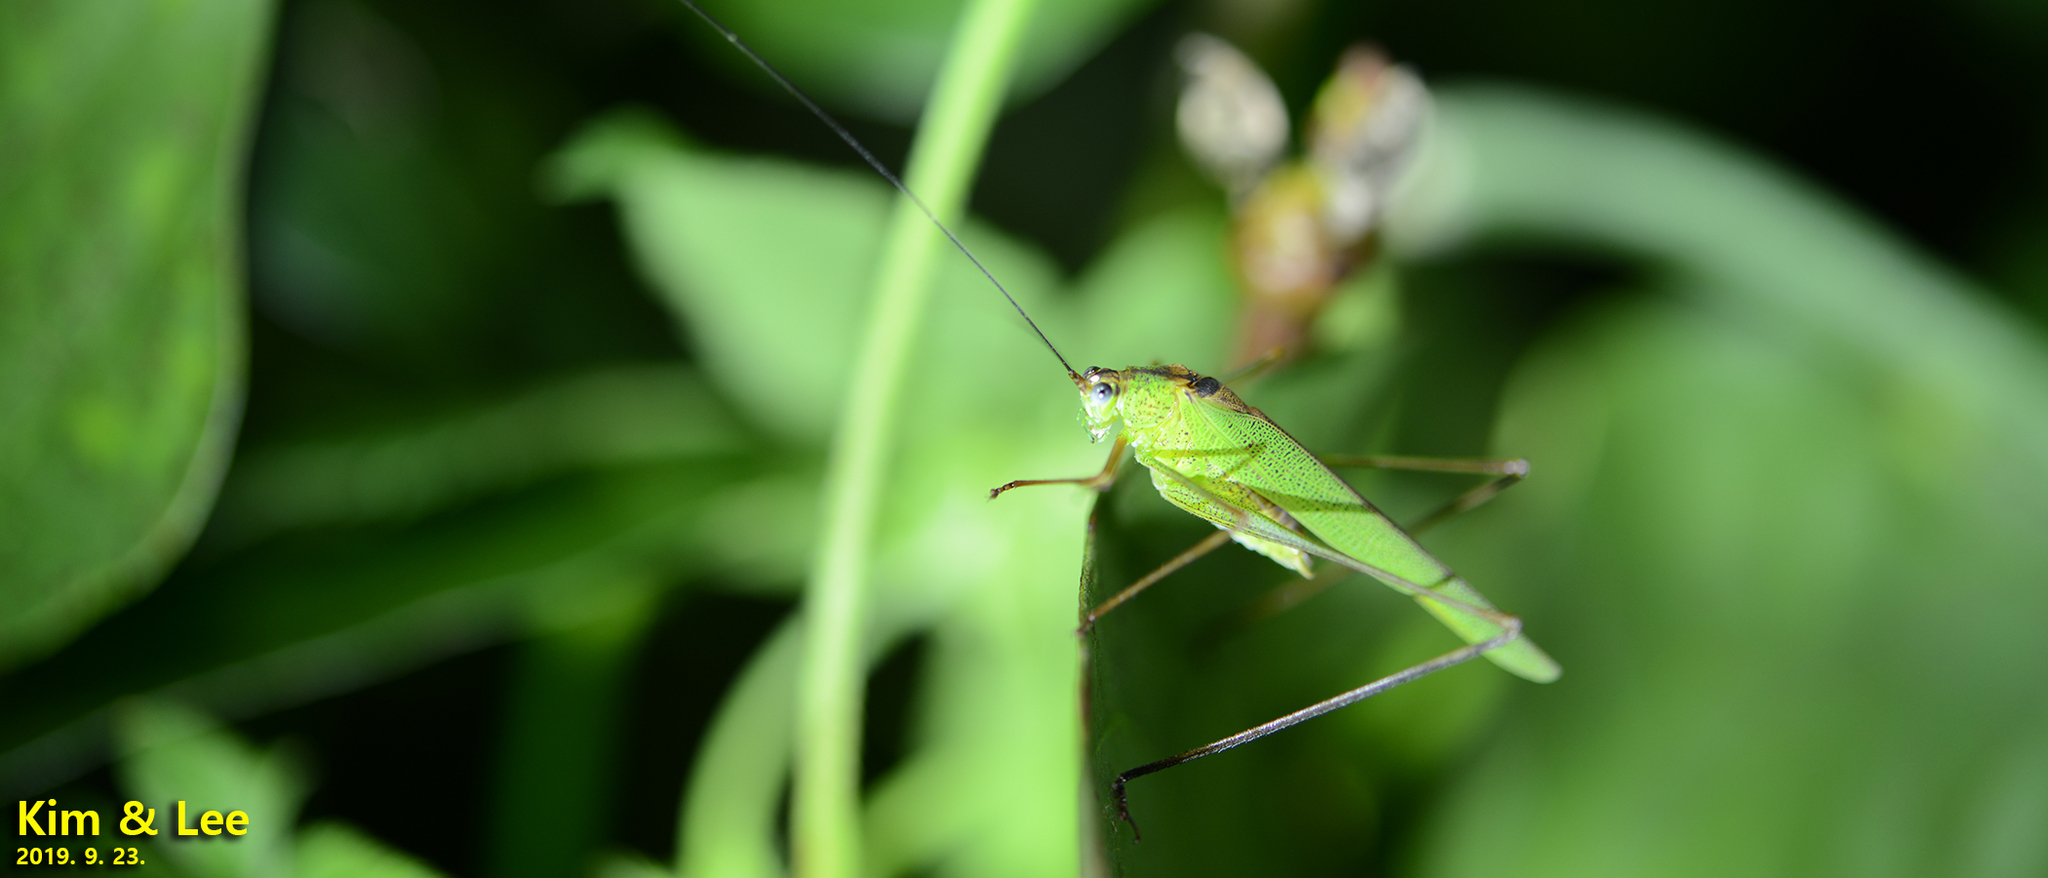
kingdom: Animalia
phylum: Arthropoda
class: Insecta
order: Orthoptera
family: Tettigoniidae
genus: Phaneroptera
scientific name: Phaneroptera nigroantennata
